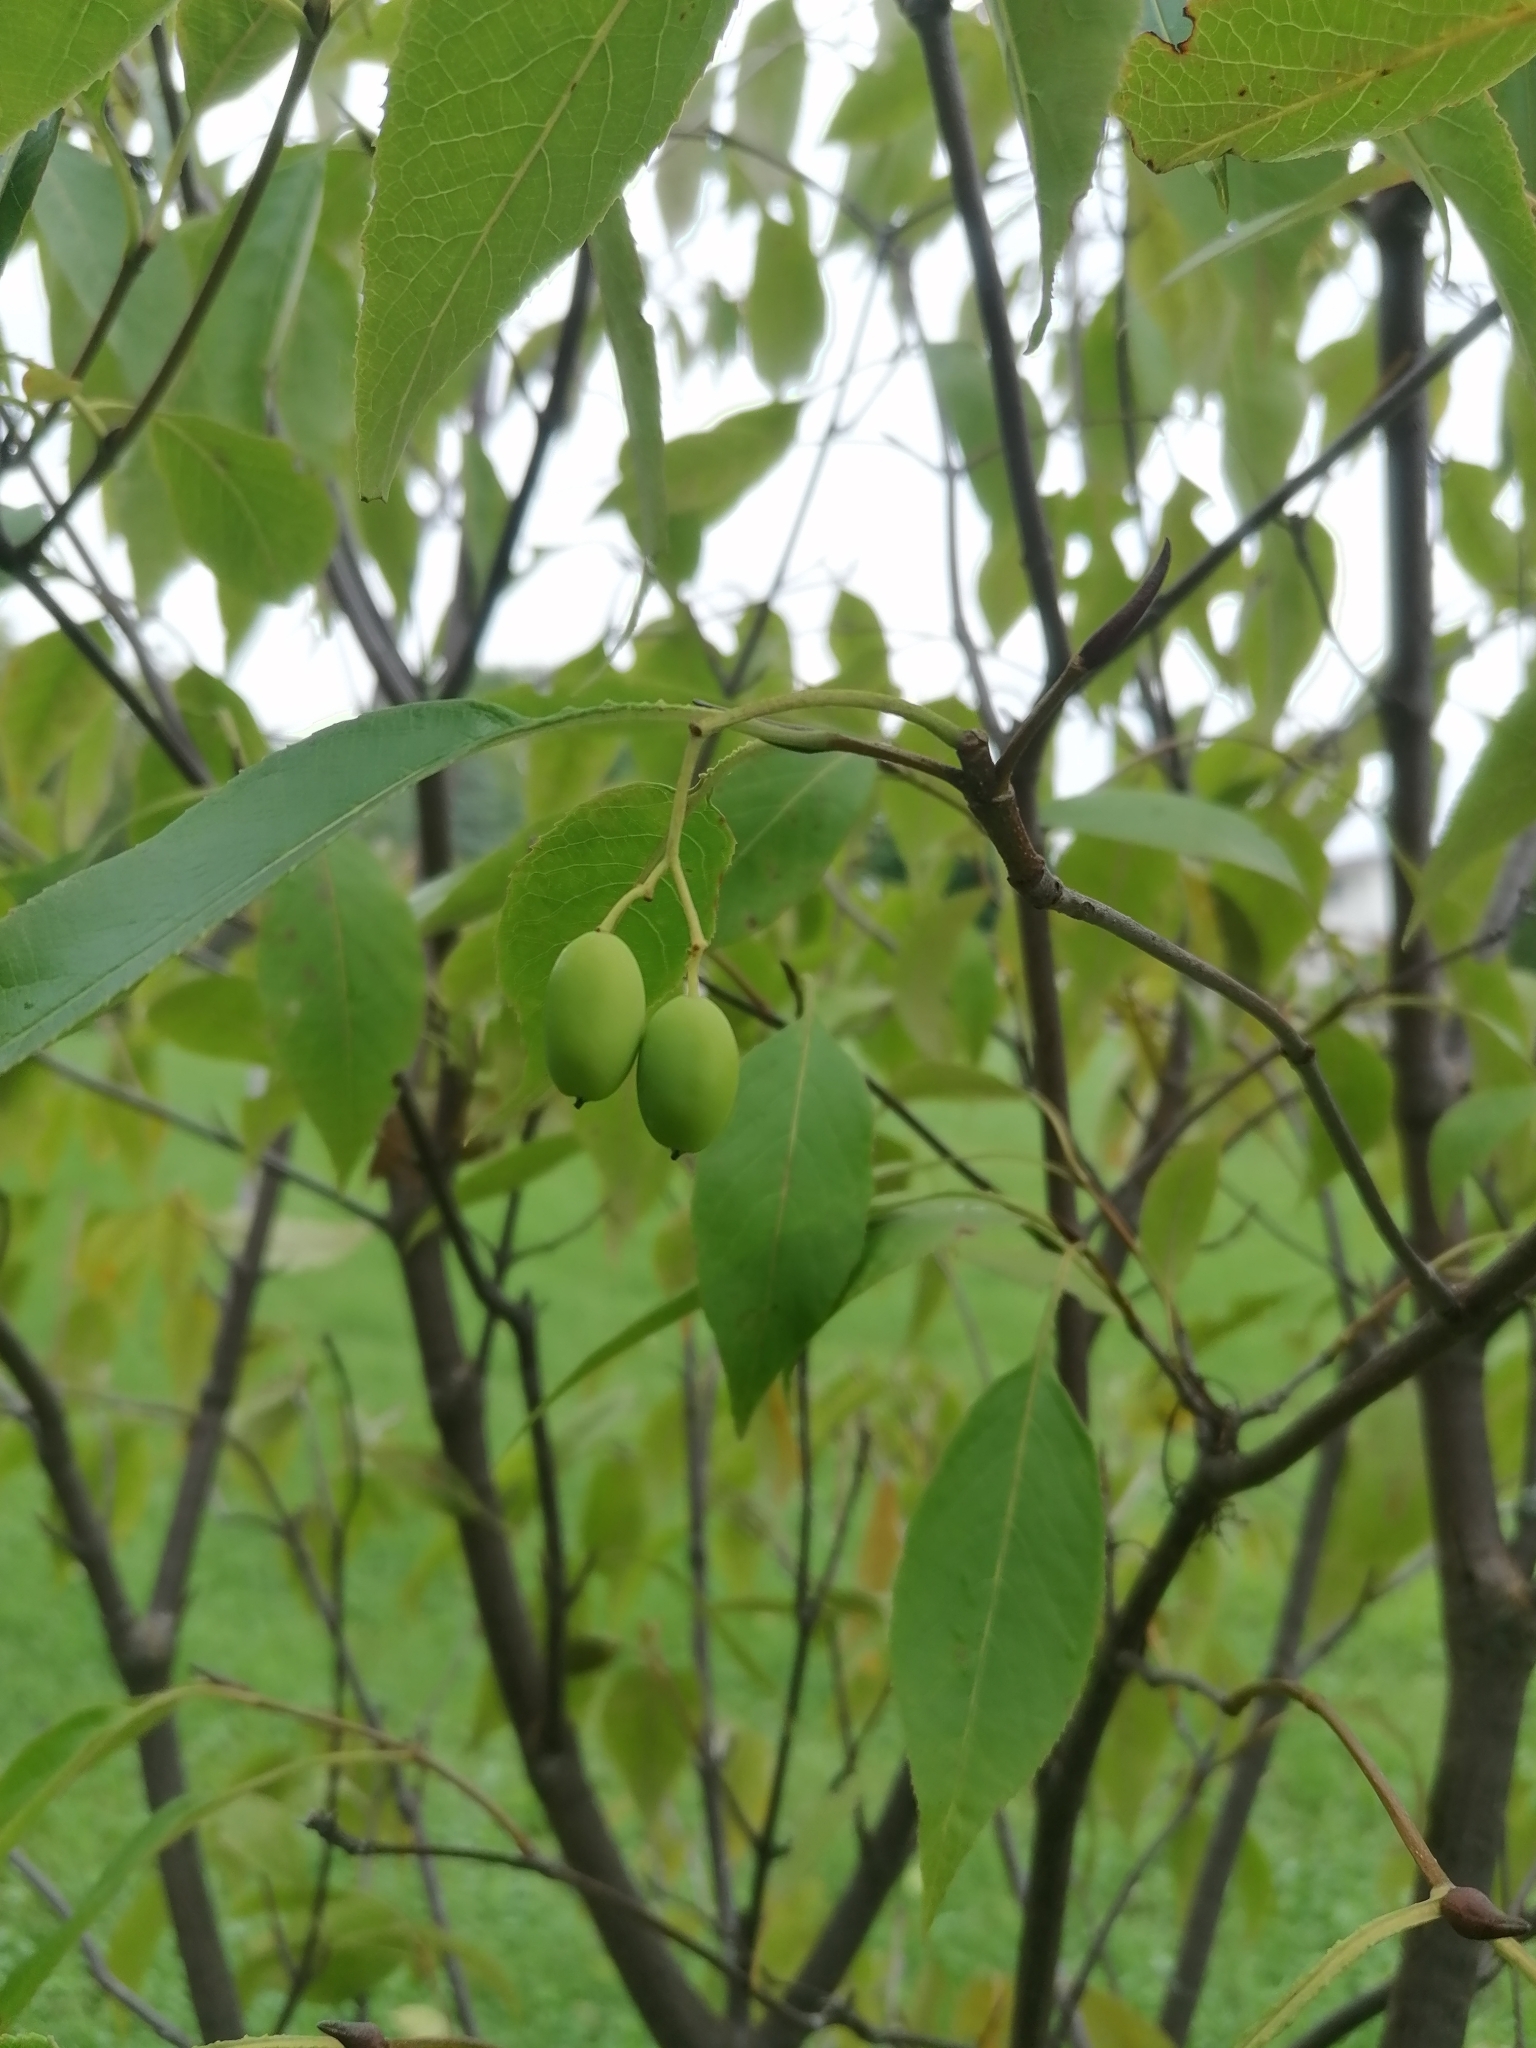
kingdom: Plantae
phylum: Tracheophyta
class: Magnoliopsida
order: Dipsacales
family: Viburnaceae
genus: Viburnum
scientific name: Viburnum lentago
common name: Black haw
